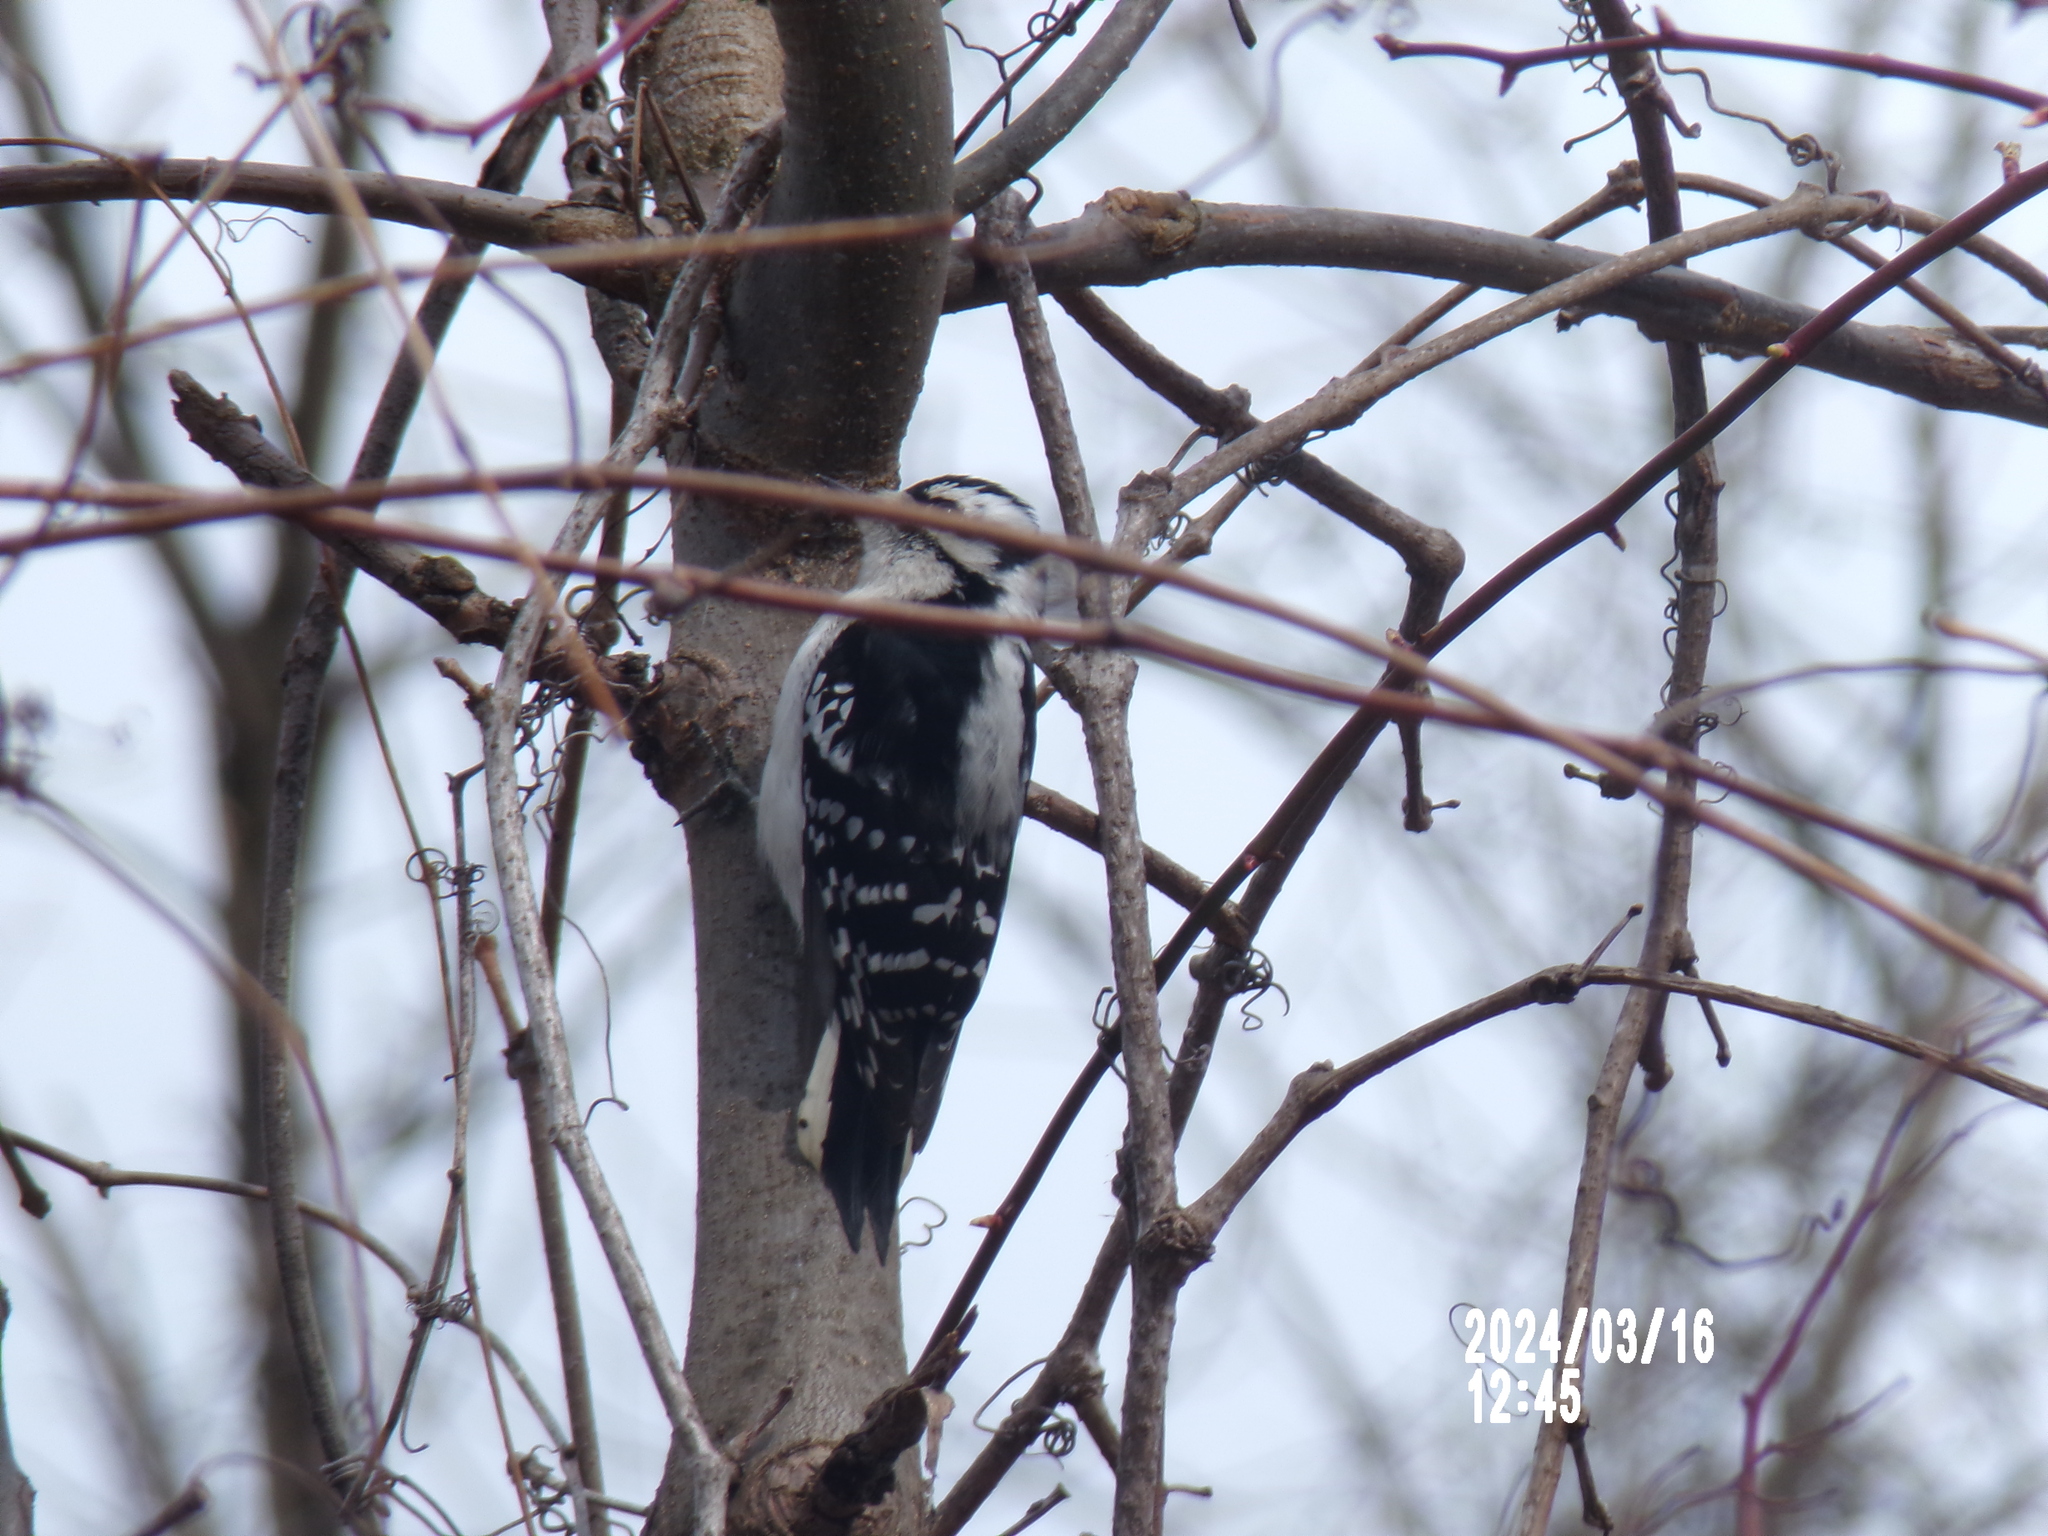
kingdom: Animalia
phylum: Chordata
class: Aves
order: Piciformes
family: Picidae
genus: Dryobates
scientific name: Dryobates pubescens
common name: Downy woodpecker
